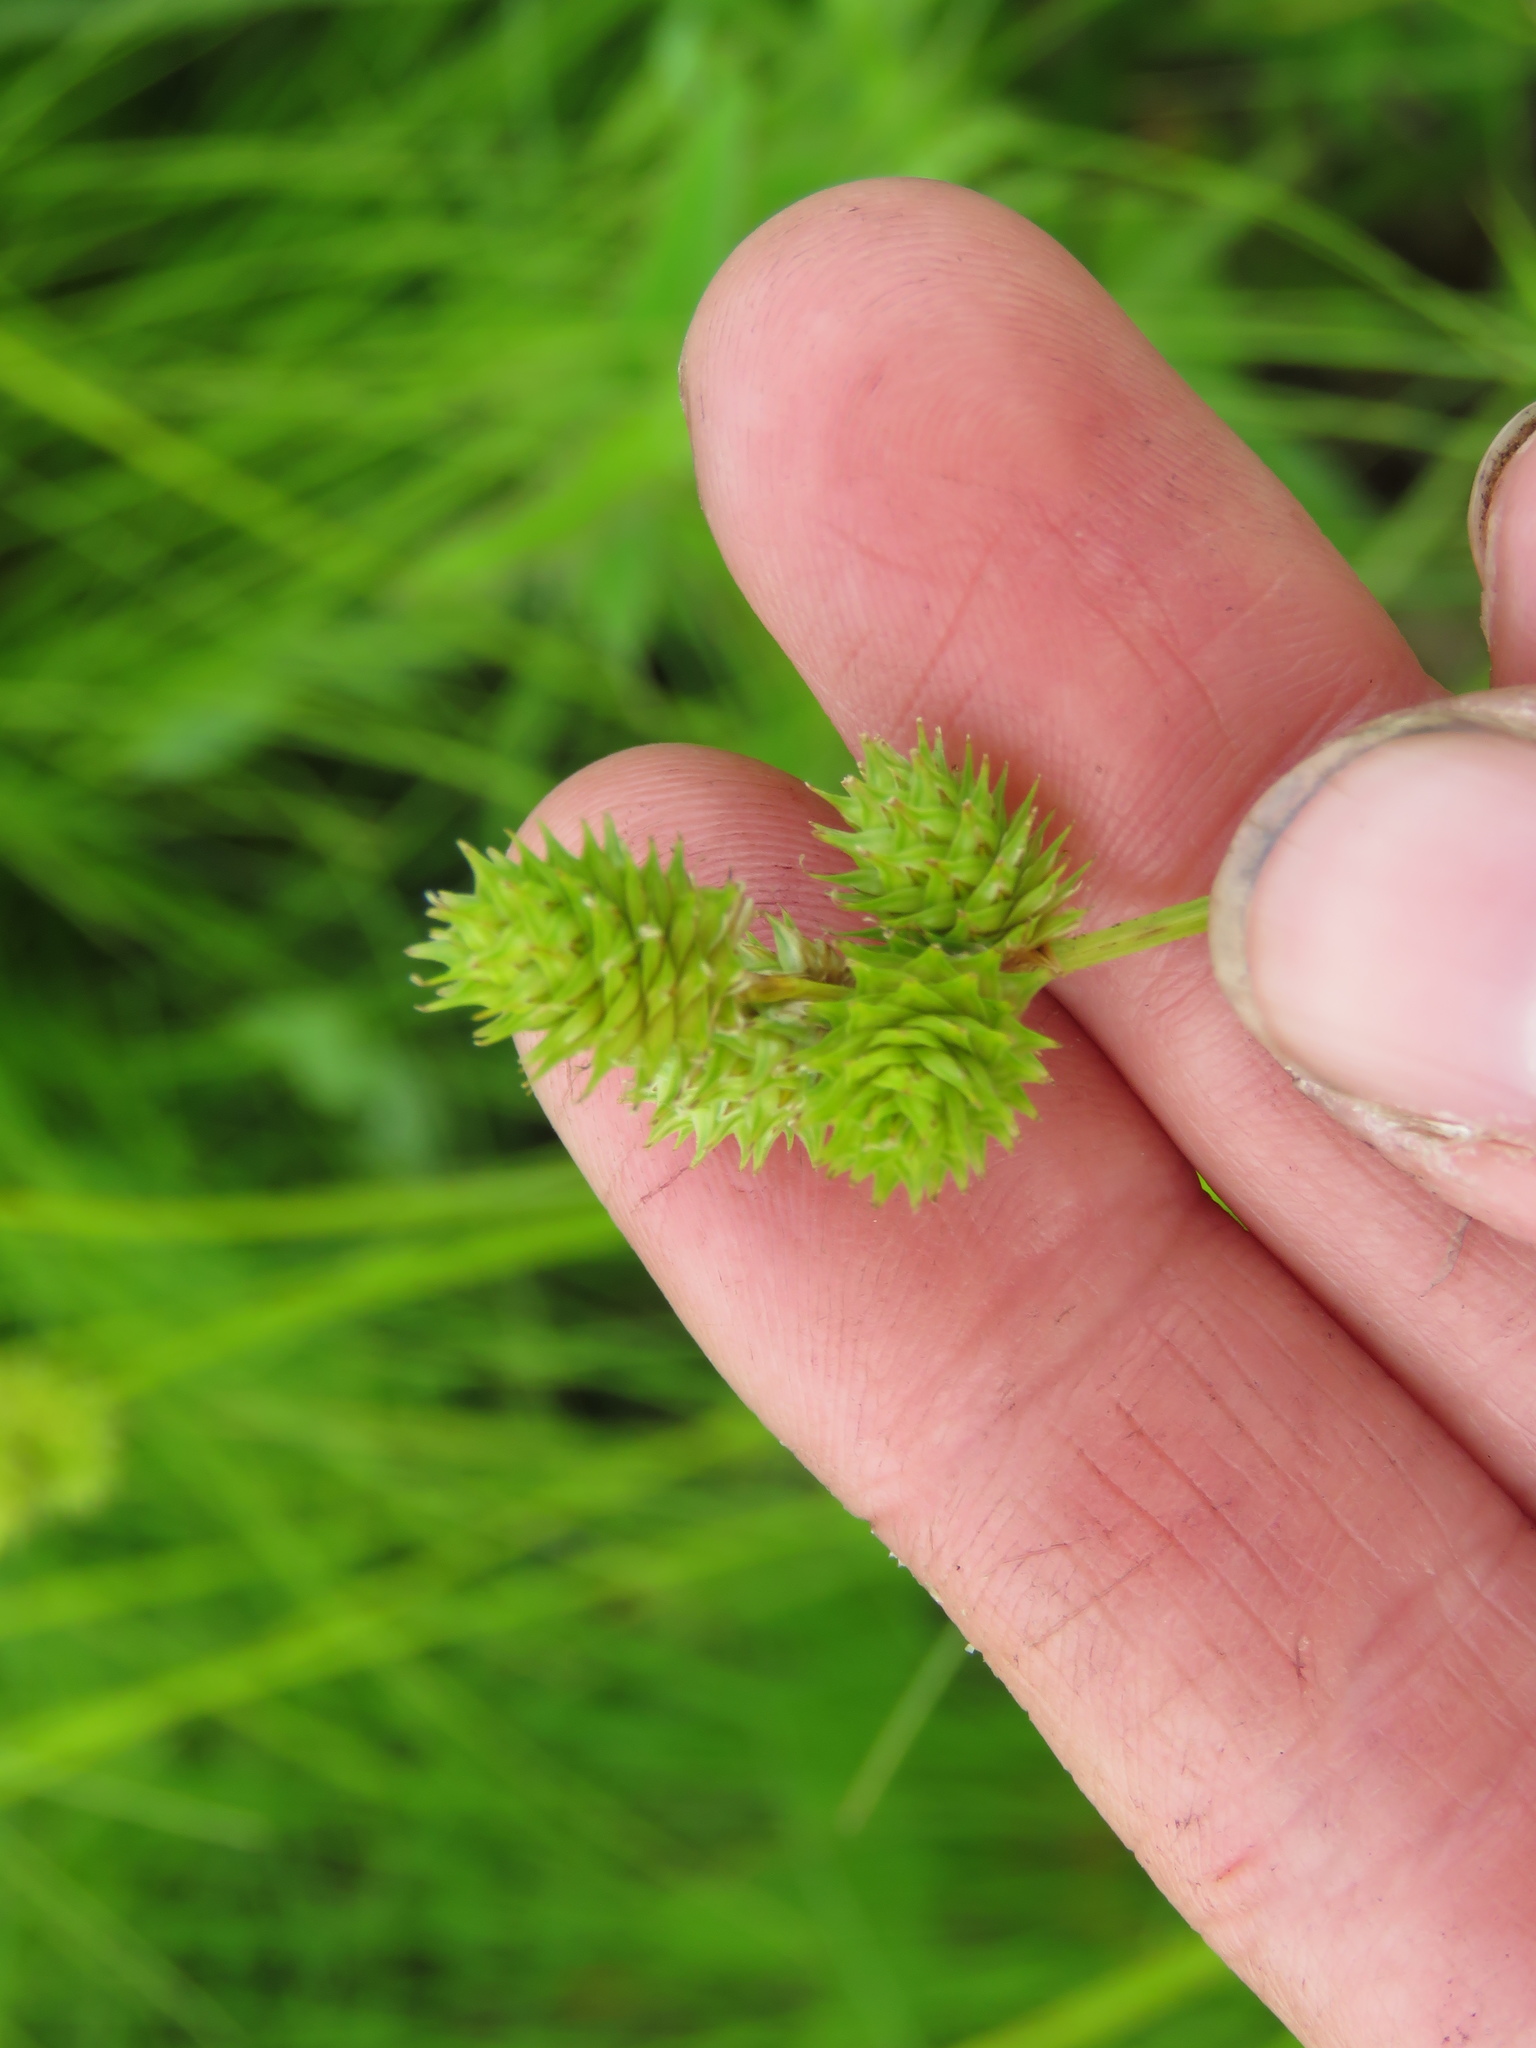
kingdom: Plantae
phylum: Tracheophyta
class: Liliopsida
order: Poales
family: Cyperaceae
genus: Carex
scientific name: Carex molesta
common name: Troublesome sedge
